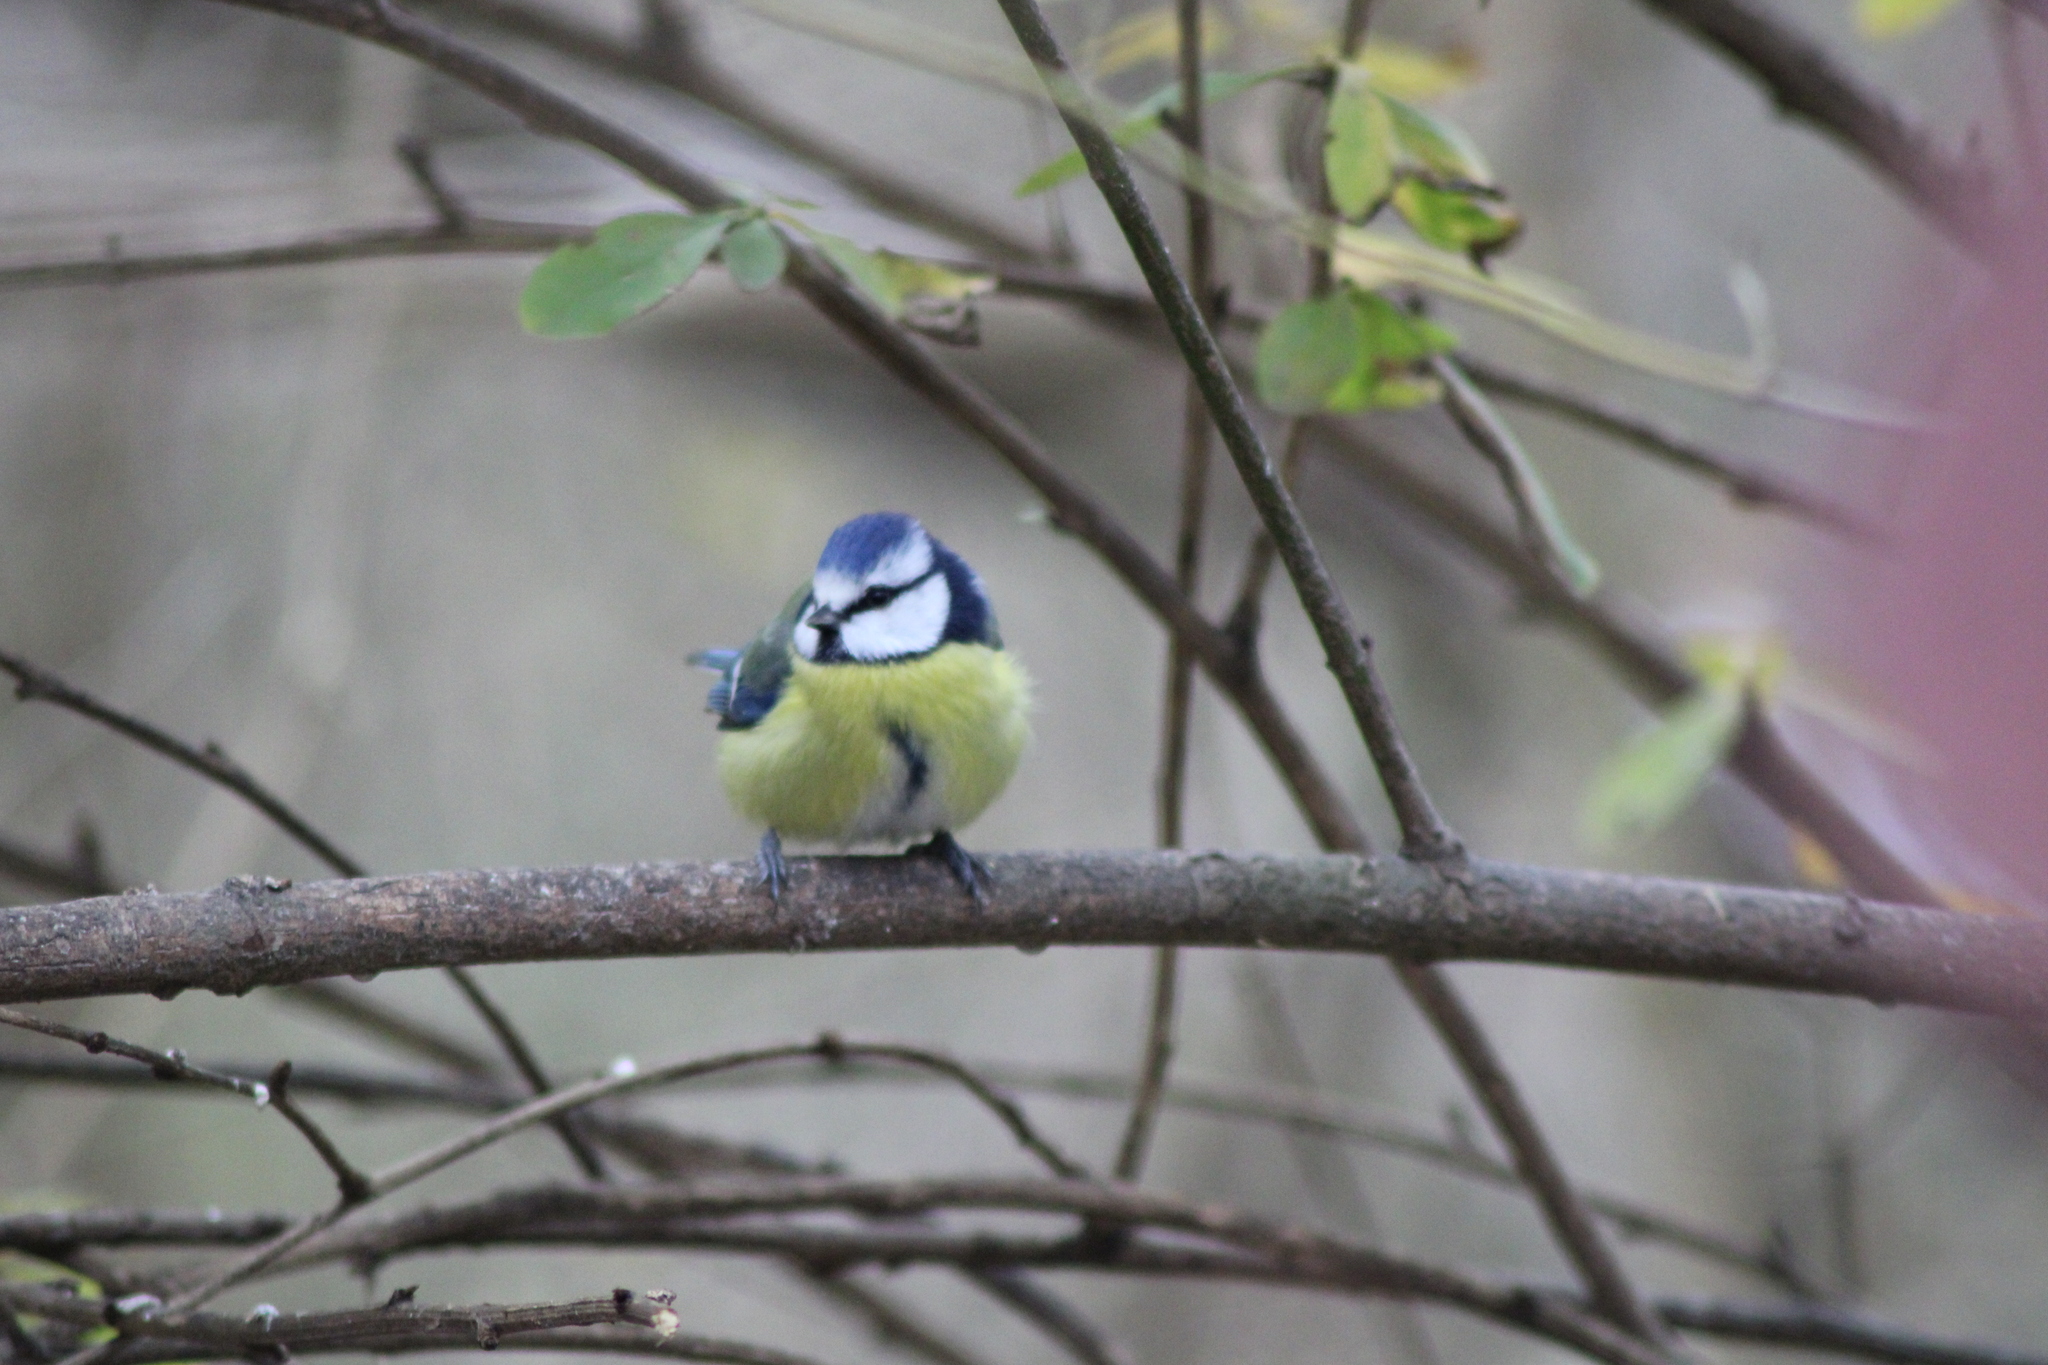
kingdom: Animalia
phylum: Chordata
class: Aves
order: Passeriformes
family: Paridae
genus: Cyanistes
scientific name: Cyanistes caeruleus
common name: Eurasian blue tit
